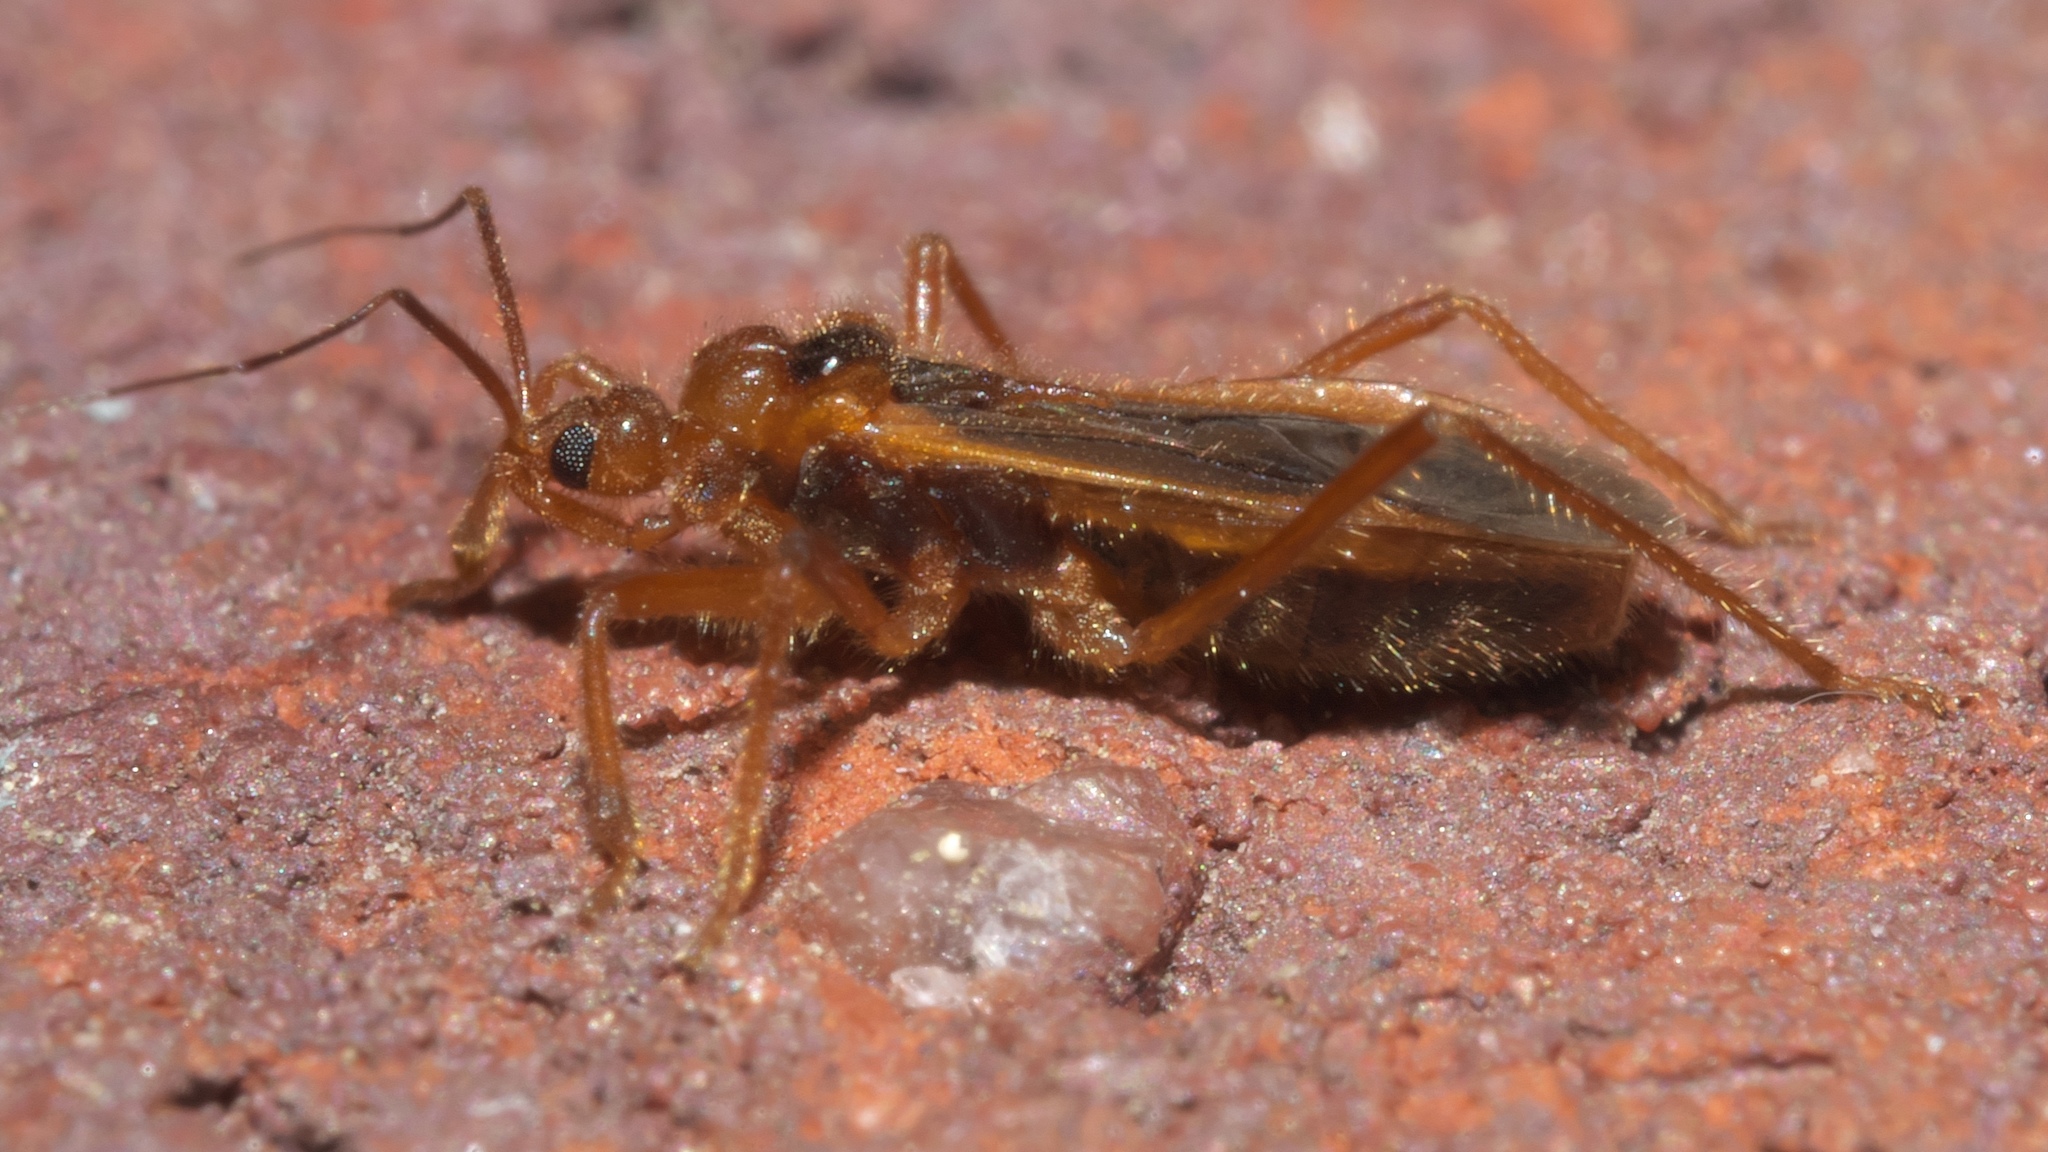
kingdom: Animalia
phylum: Arthropoda
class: Insecta
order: Hemiptera
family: Reduviidae
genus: Oncerotrachelus
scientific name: Oncerotrachelus acuminatus
